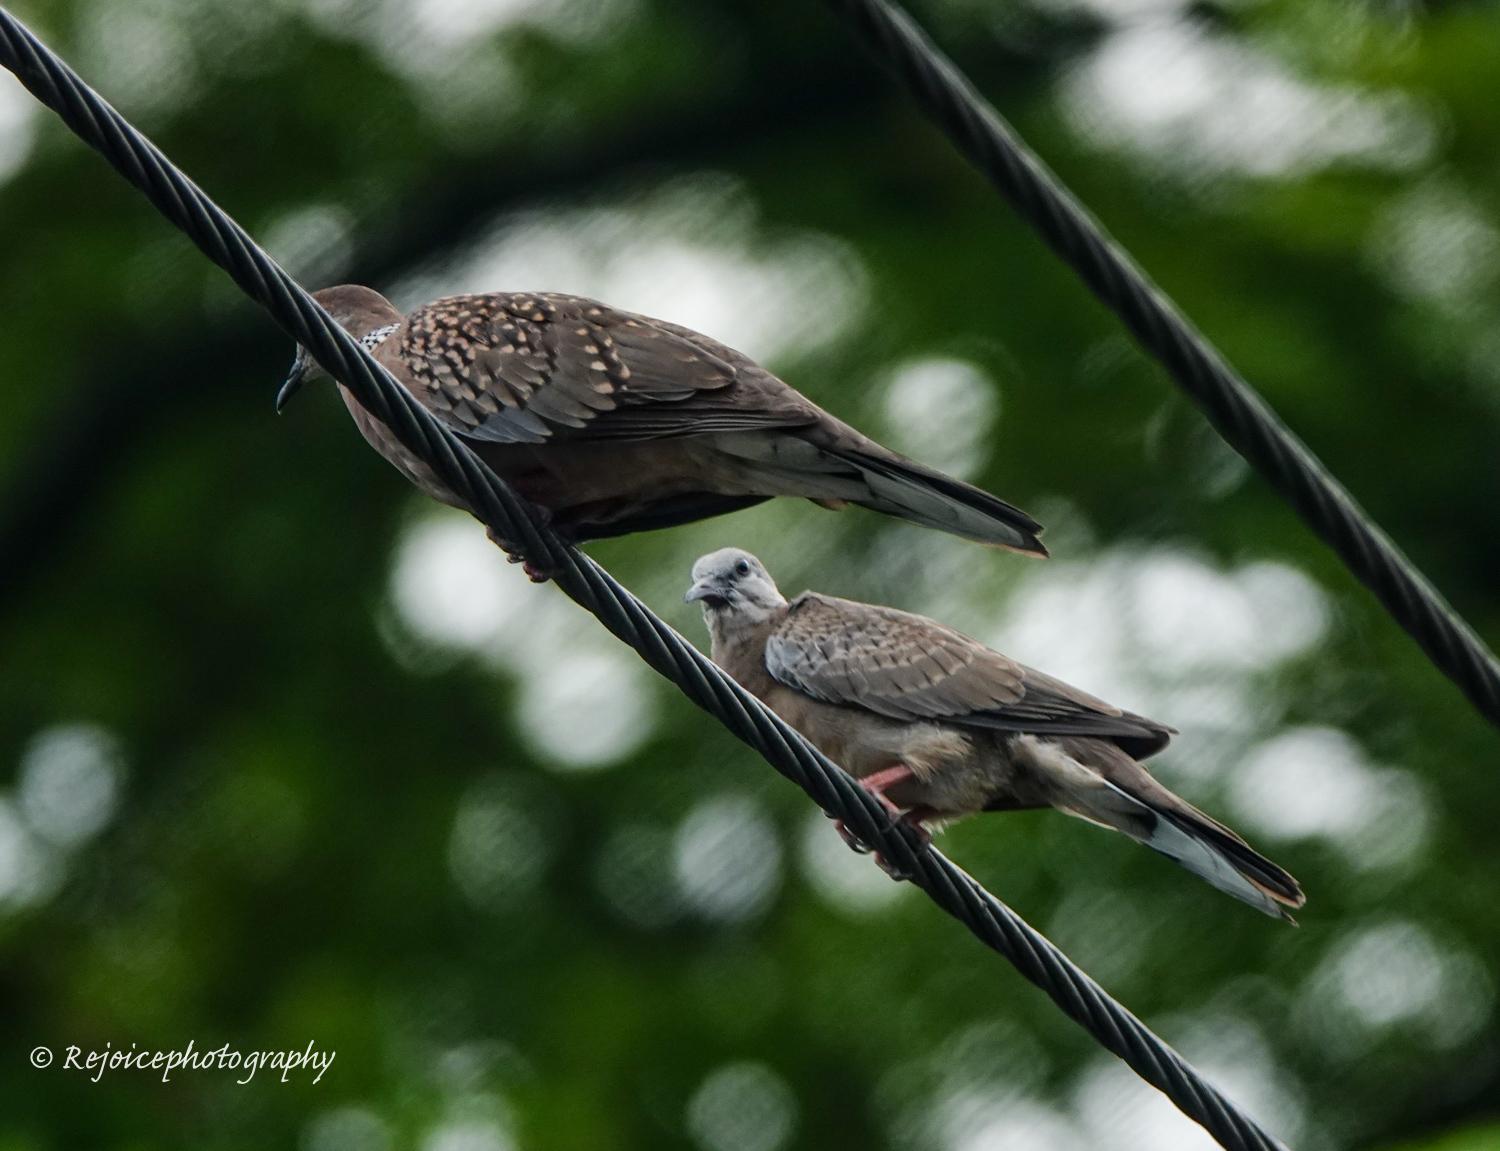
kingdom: Animalia
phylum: Chordata
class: Aves
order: Columbiformes
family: Columbidae
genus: Spilopelia
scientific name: Spilopelia chinensis
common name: Spotted dove
